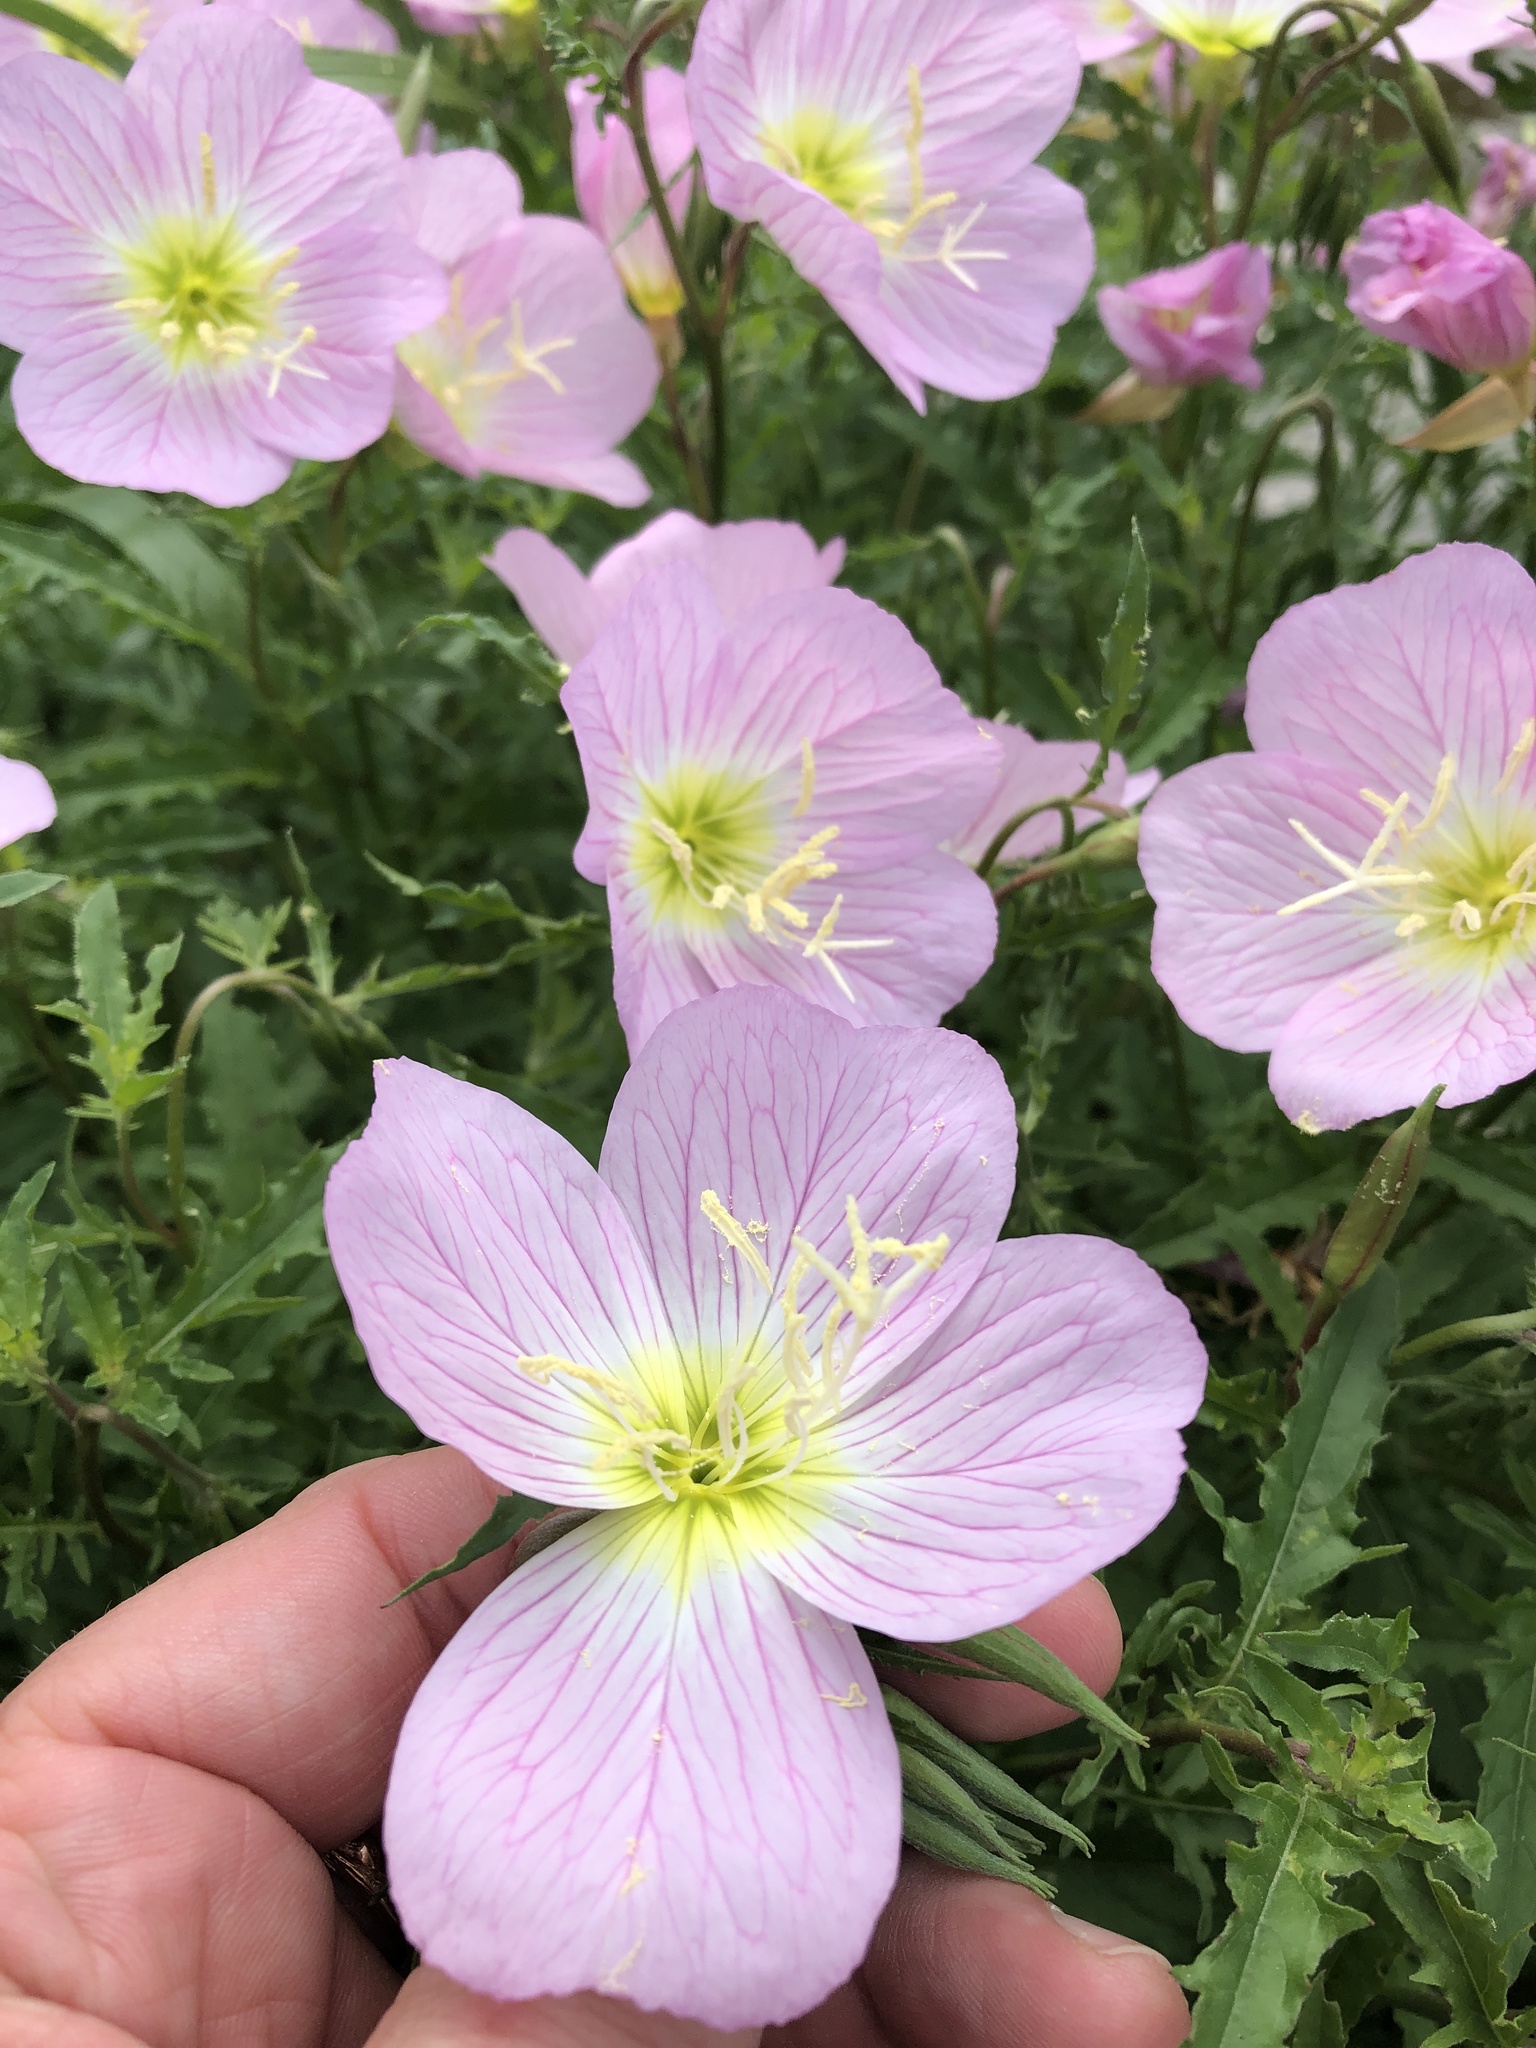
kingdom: Plantae
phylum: Tracheophyta
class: Magnoliopsida
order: Myrtales
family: Onagraceae
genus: Oenothera
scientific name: Oenothera speciosa
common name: White evening-primrose
